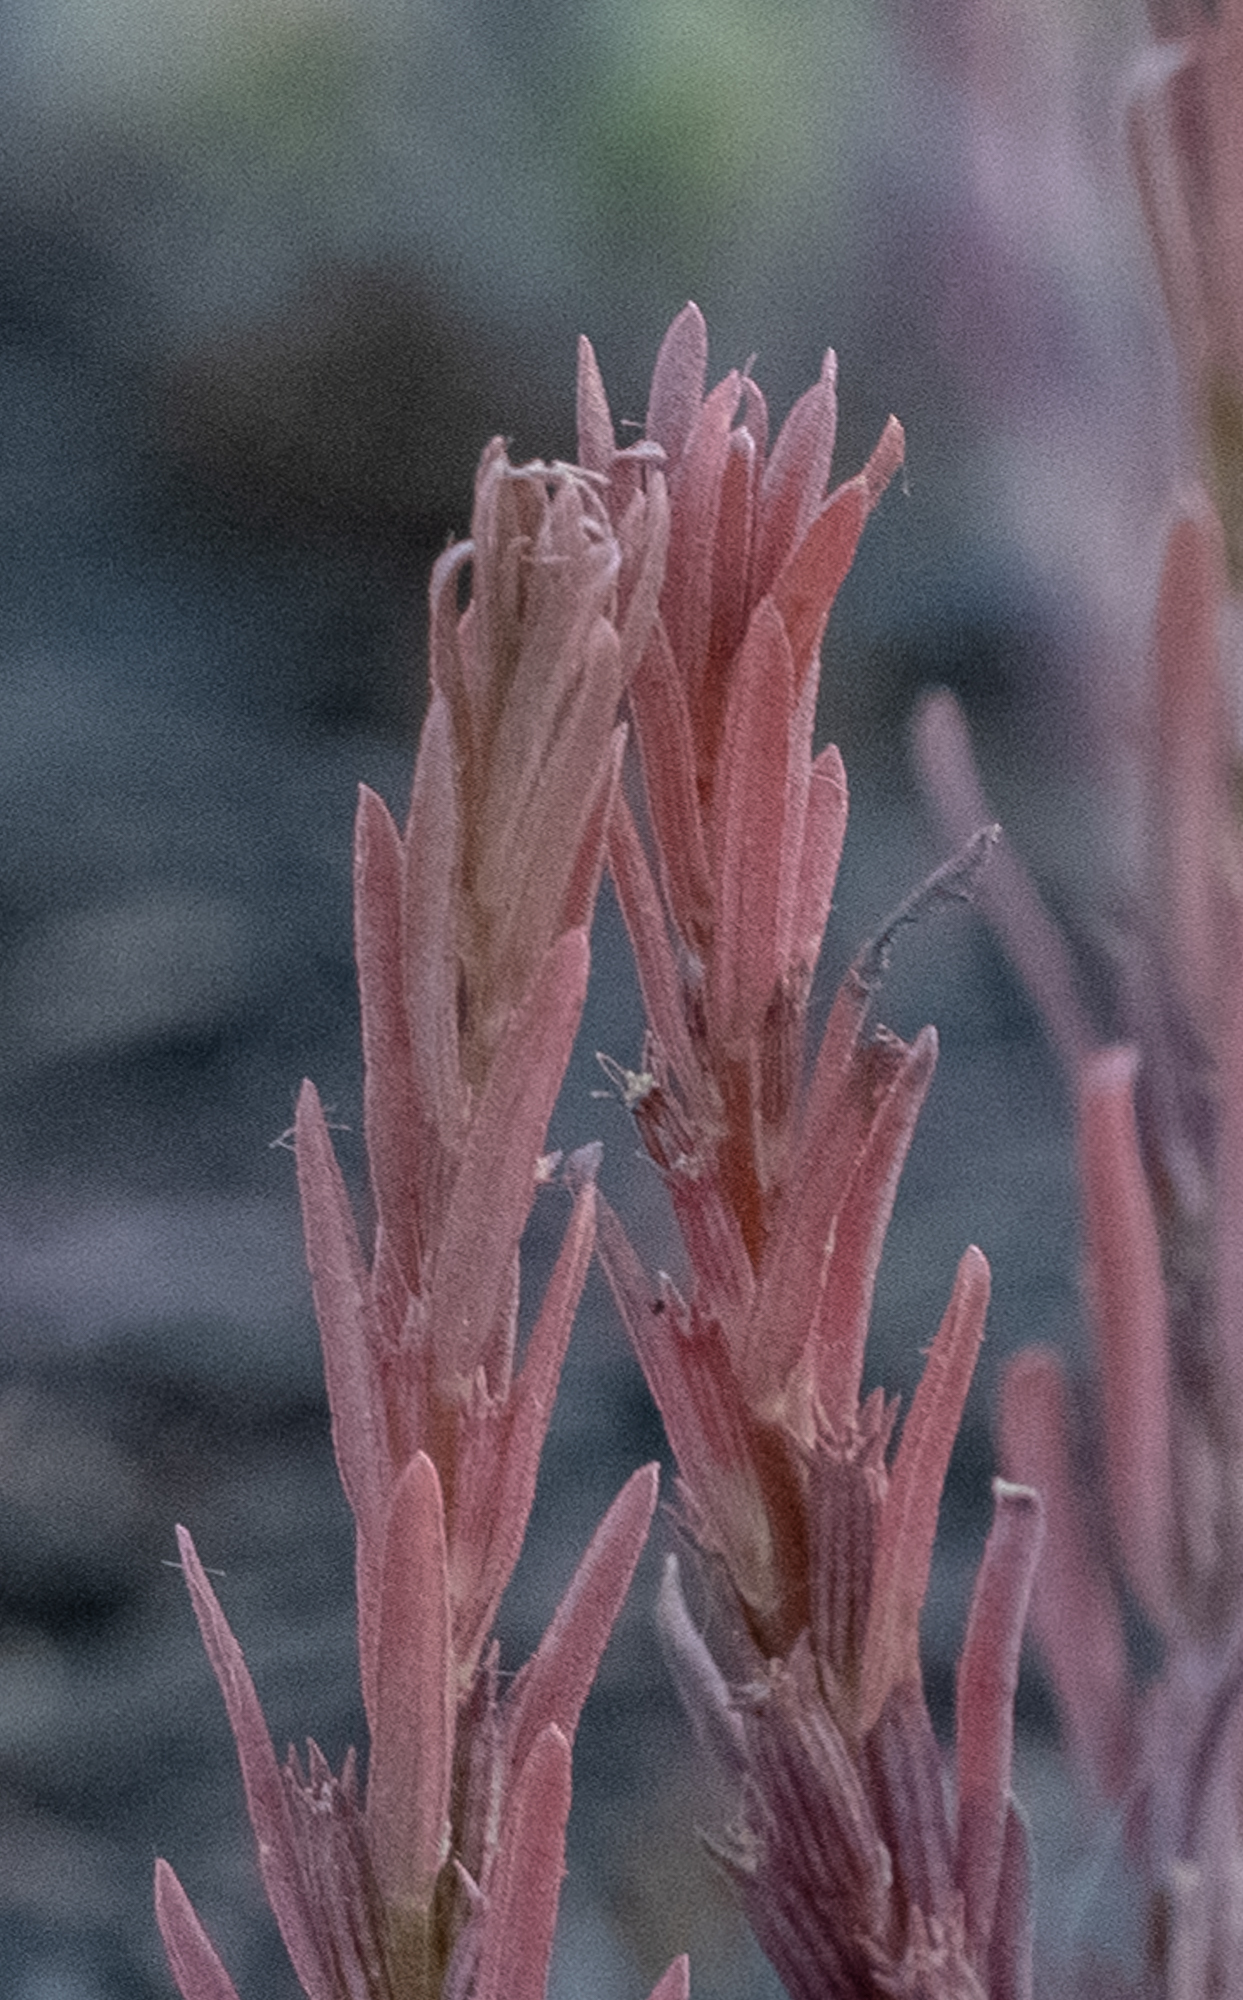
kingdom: Plantae
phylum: Tracheophyta
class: Magnoliopsida
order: Myrtales
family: Lythraceae
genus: Lythrum
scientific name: Lythrum hyssopifolia
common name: Grass-poly
